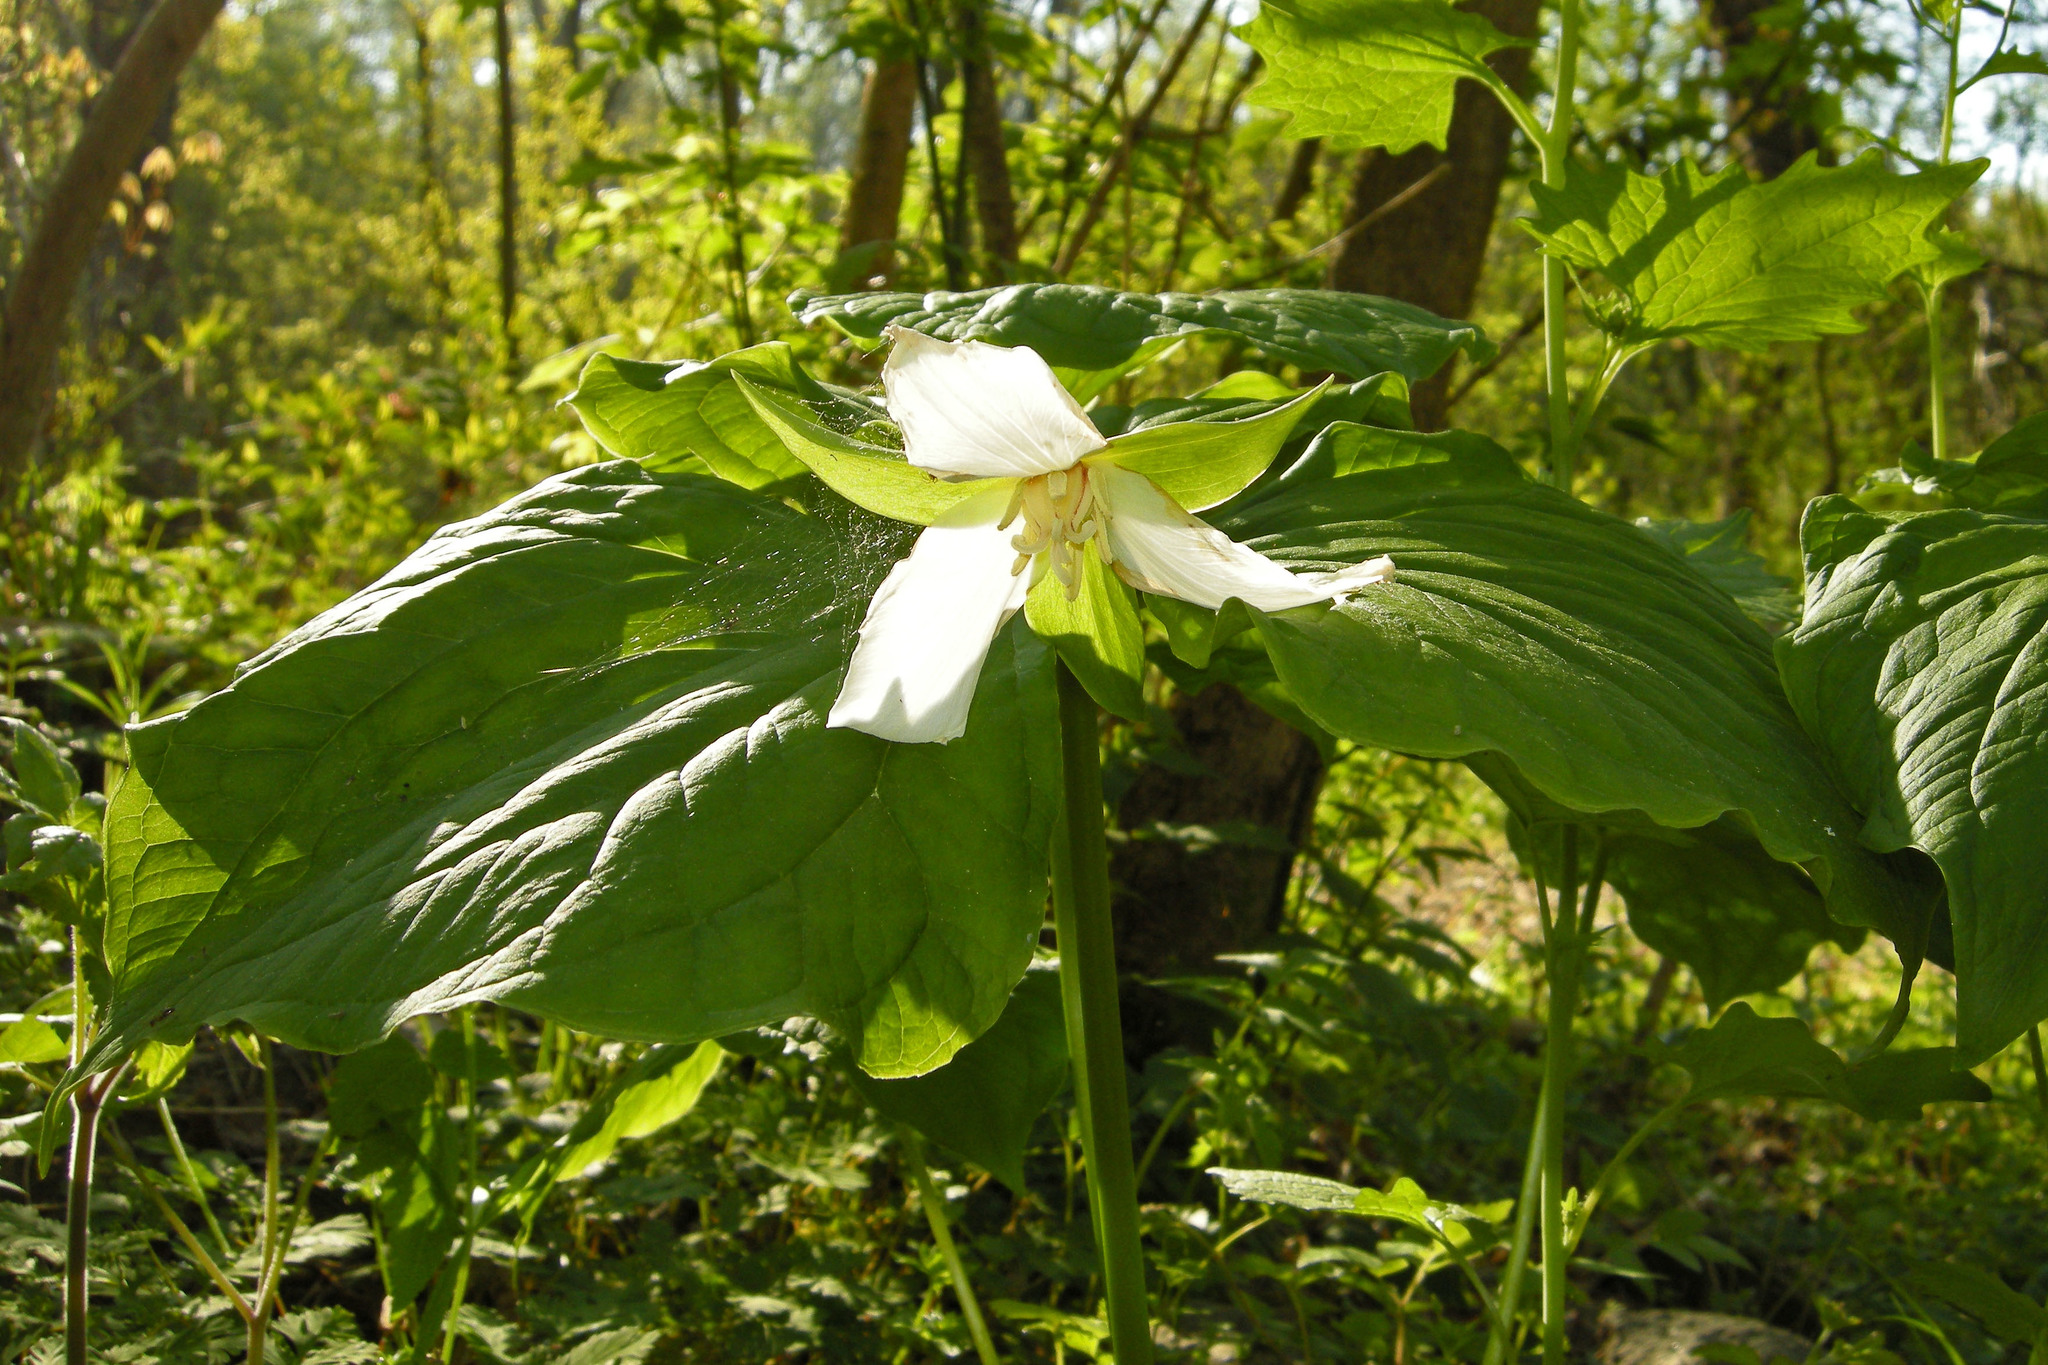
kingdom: Plantae
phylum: Tracheophyta
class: Liliopsida
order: Liliales
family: Melanthiaceae
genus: Trillium
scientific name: Trillium flexipes
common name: Drooping trillium
